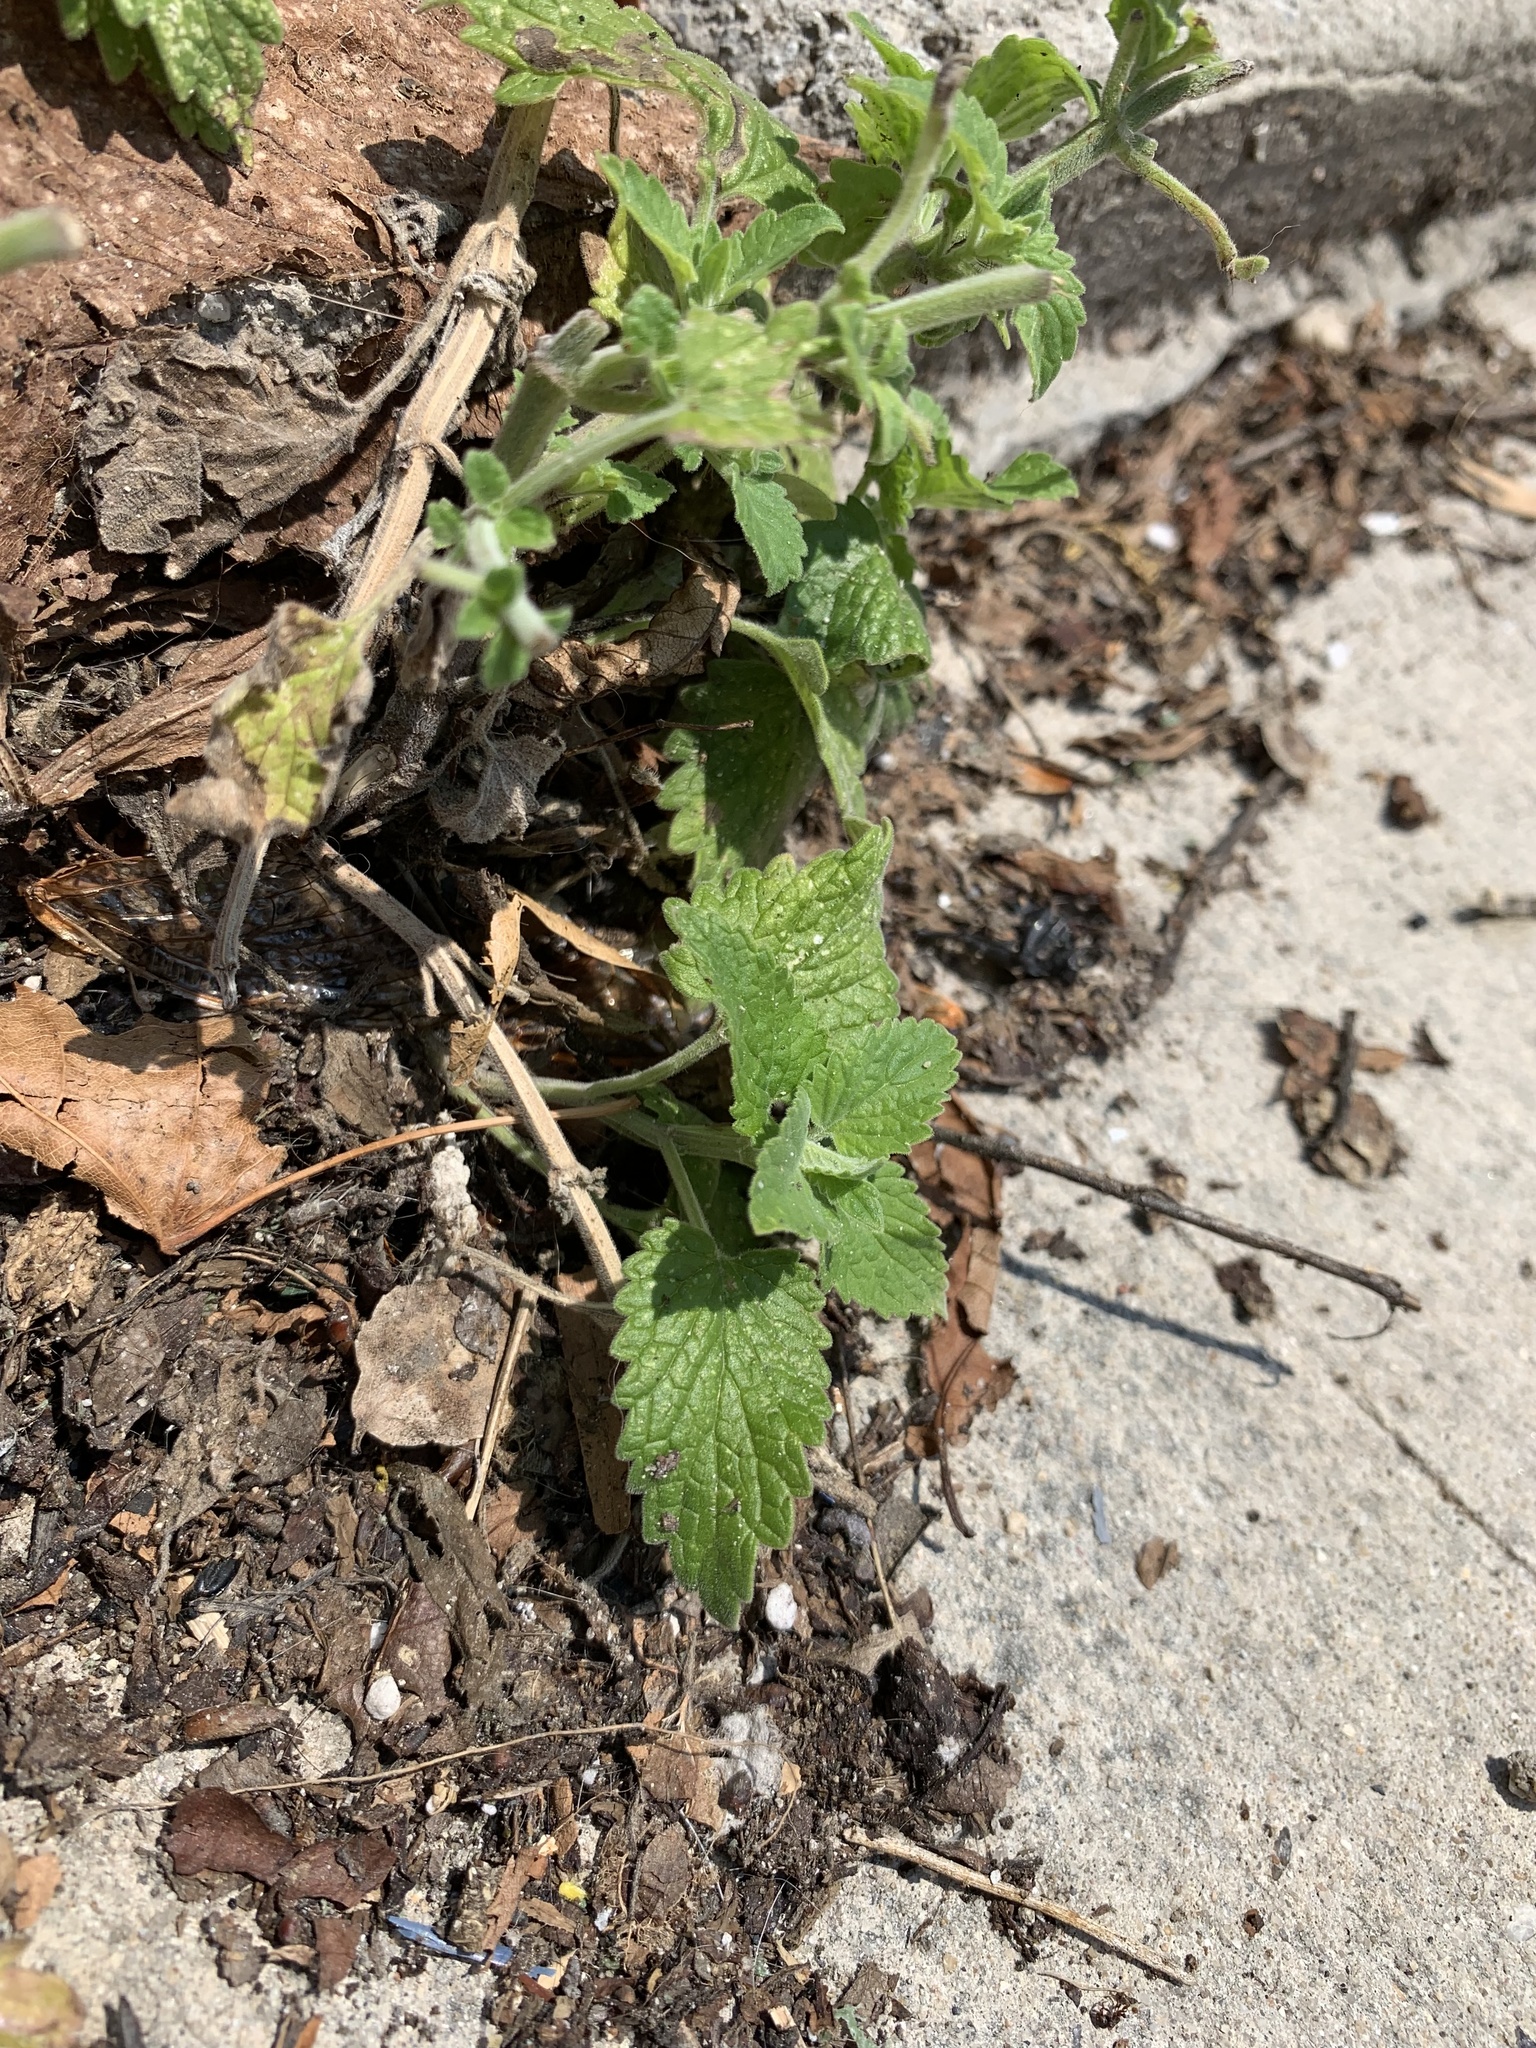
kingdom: Plantae
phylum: Tracheophyta
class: Magnoliopsida
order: Lamiales
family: Lamiaceae
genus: Nepeta
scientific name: Nepeta cataria
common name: Catnip
